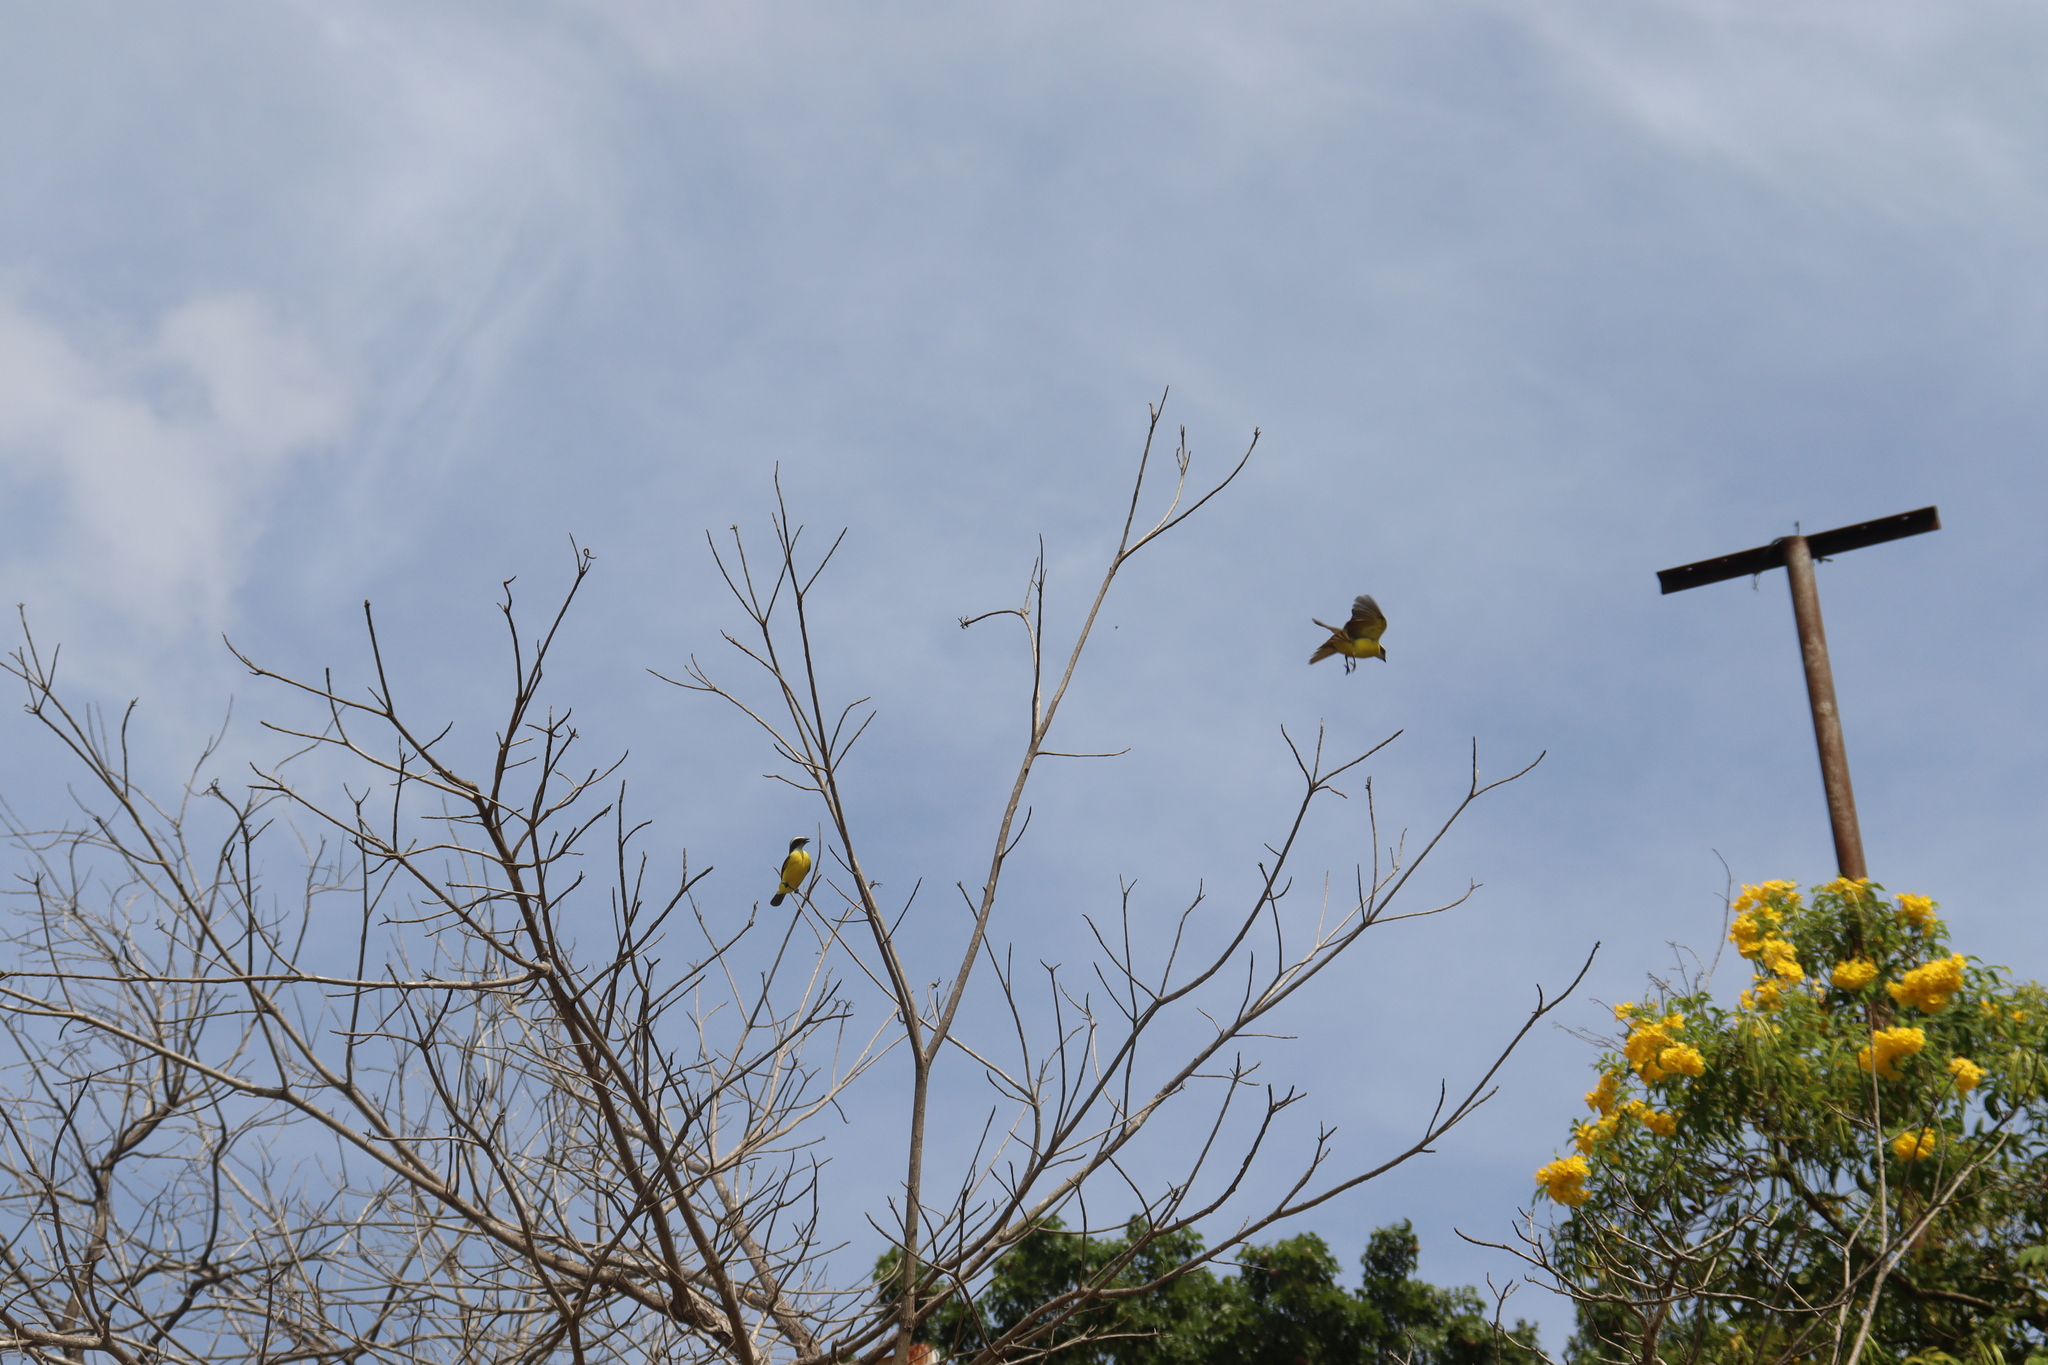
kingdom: Animalia
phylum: Chordata
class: Aves
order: Passeriformes
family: Tyrannidae
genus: Myiozetetes
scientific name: Myiozetetes similis
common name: Social flycatcher
